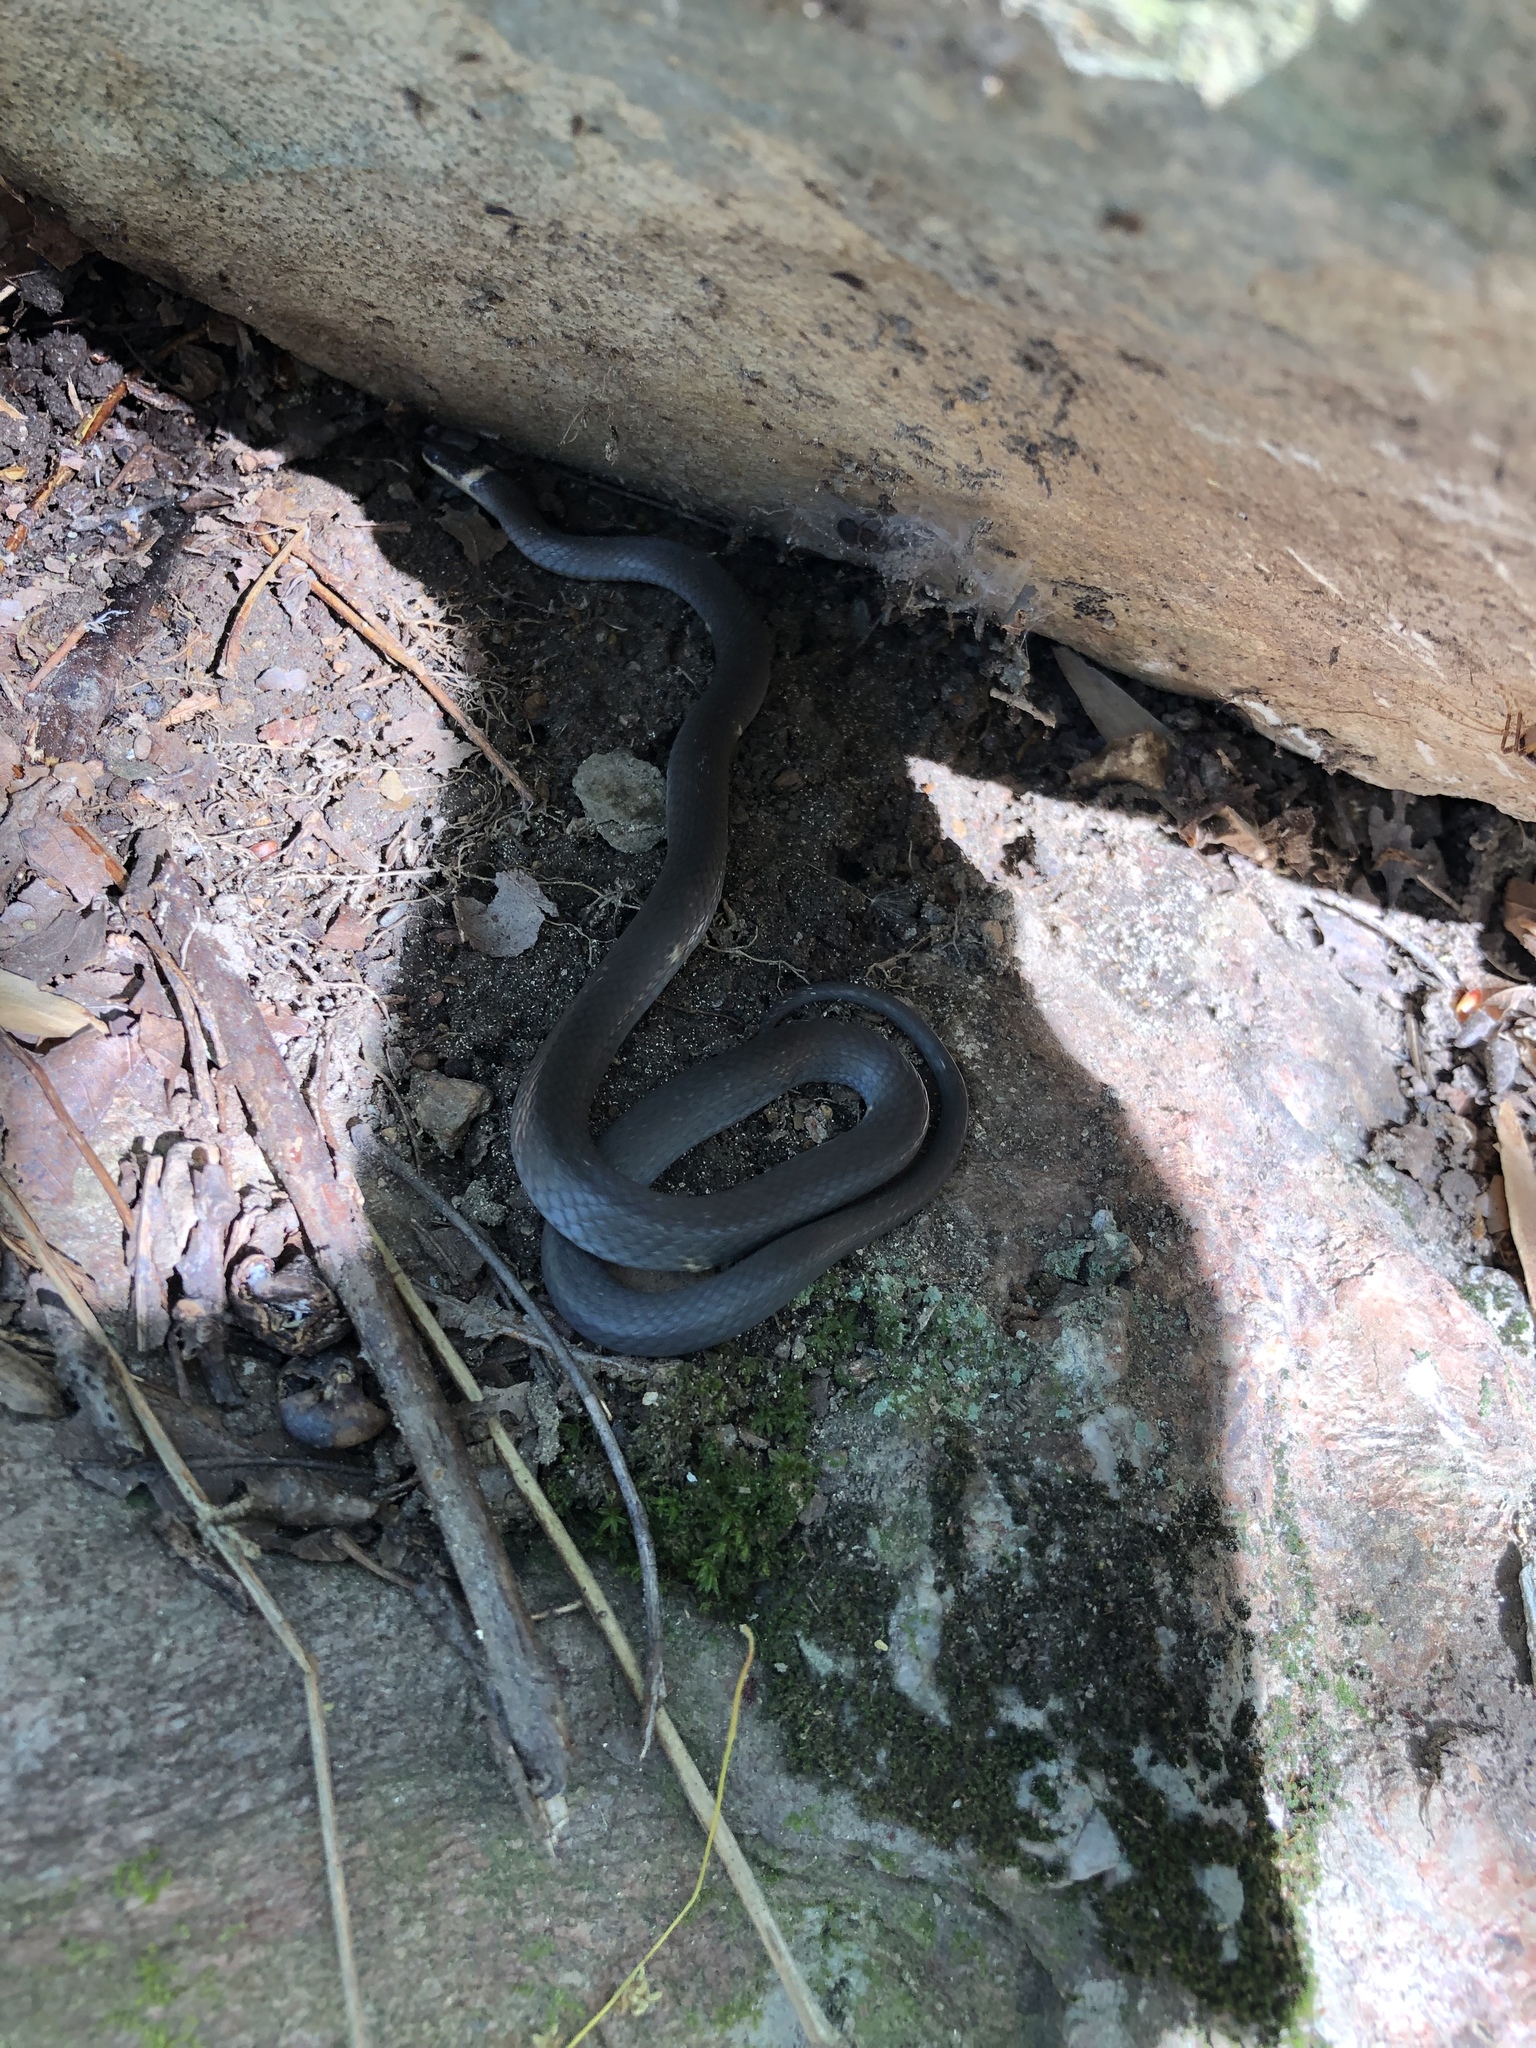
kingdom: Animalia
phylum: Chordata
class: Squamata
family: Colubridae
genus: Diadophis
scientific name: Diadophis punctatus
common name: Ringneck snake
